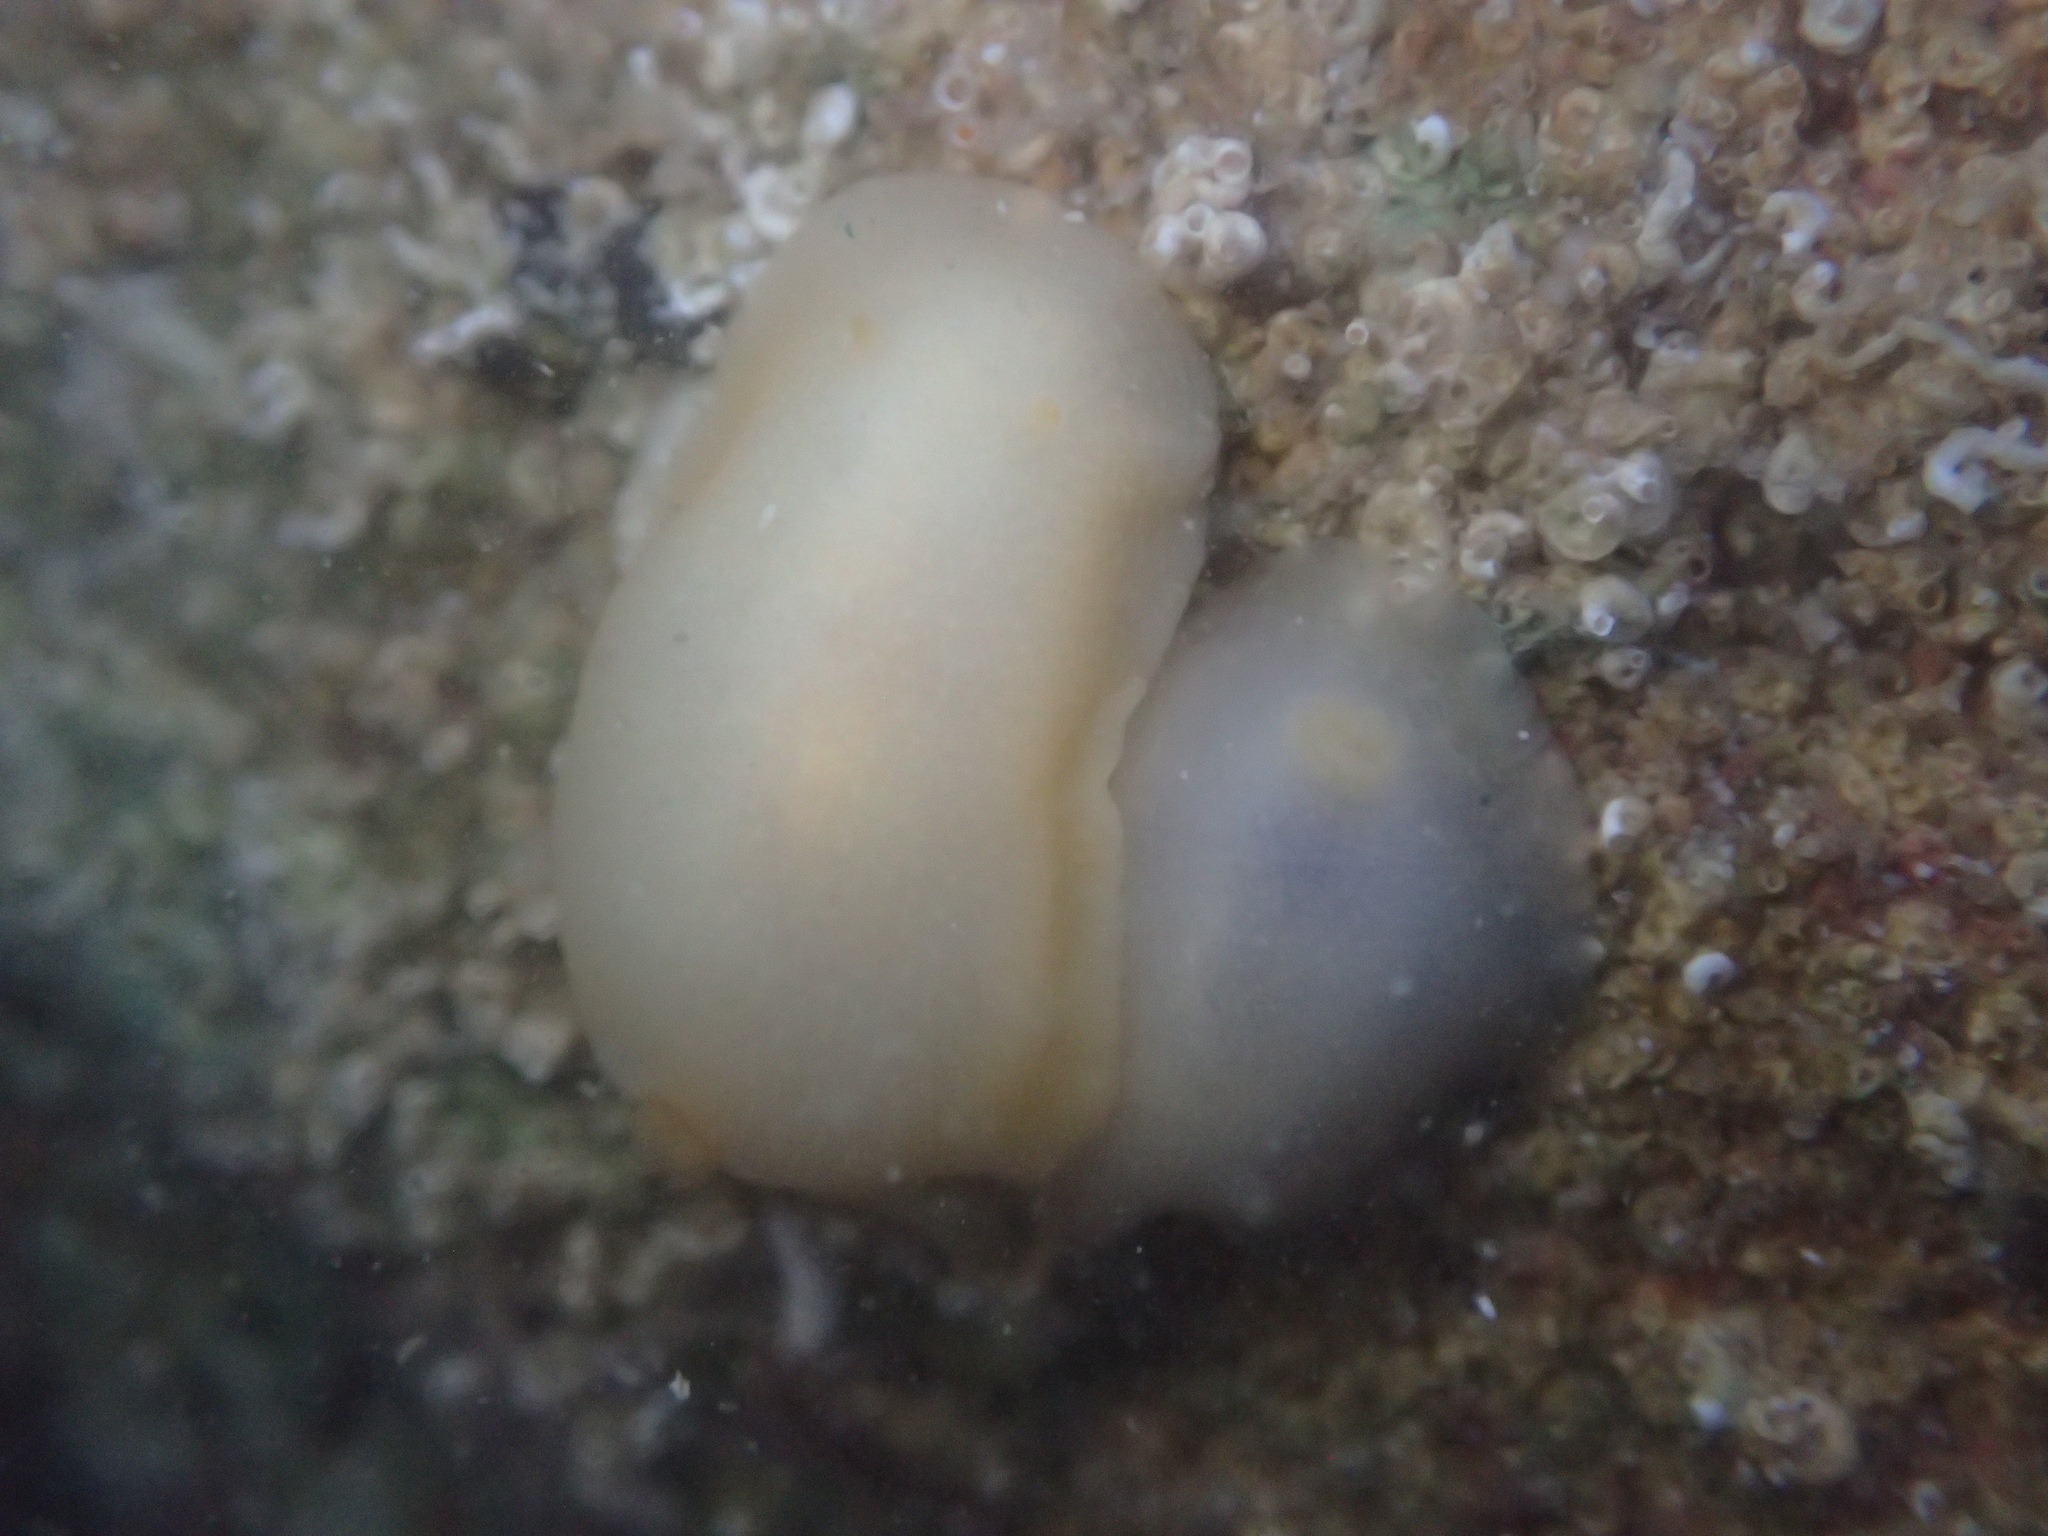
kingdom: Animalia
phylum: Mollusca
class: Gastropoda
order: Nudibranchia
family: Dorididae
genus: Conualevia
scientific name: Conualevia marcusi
